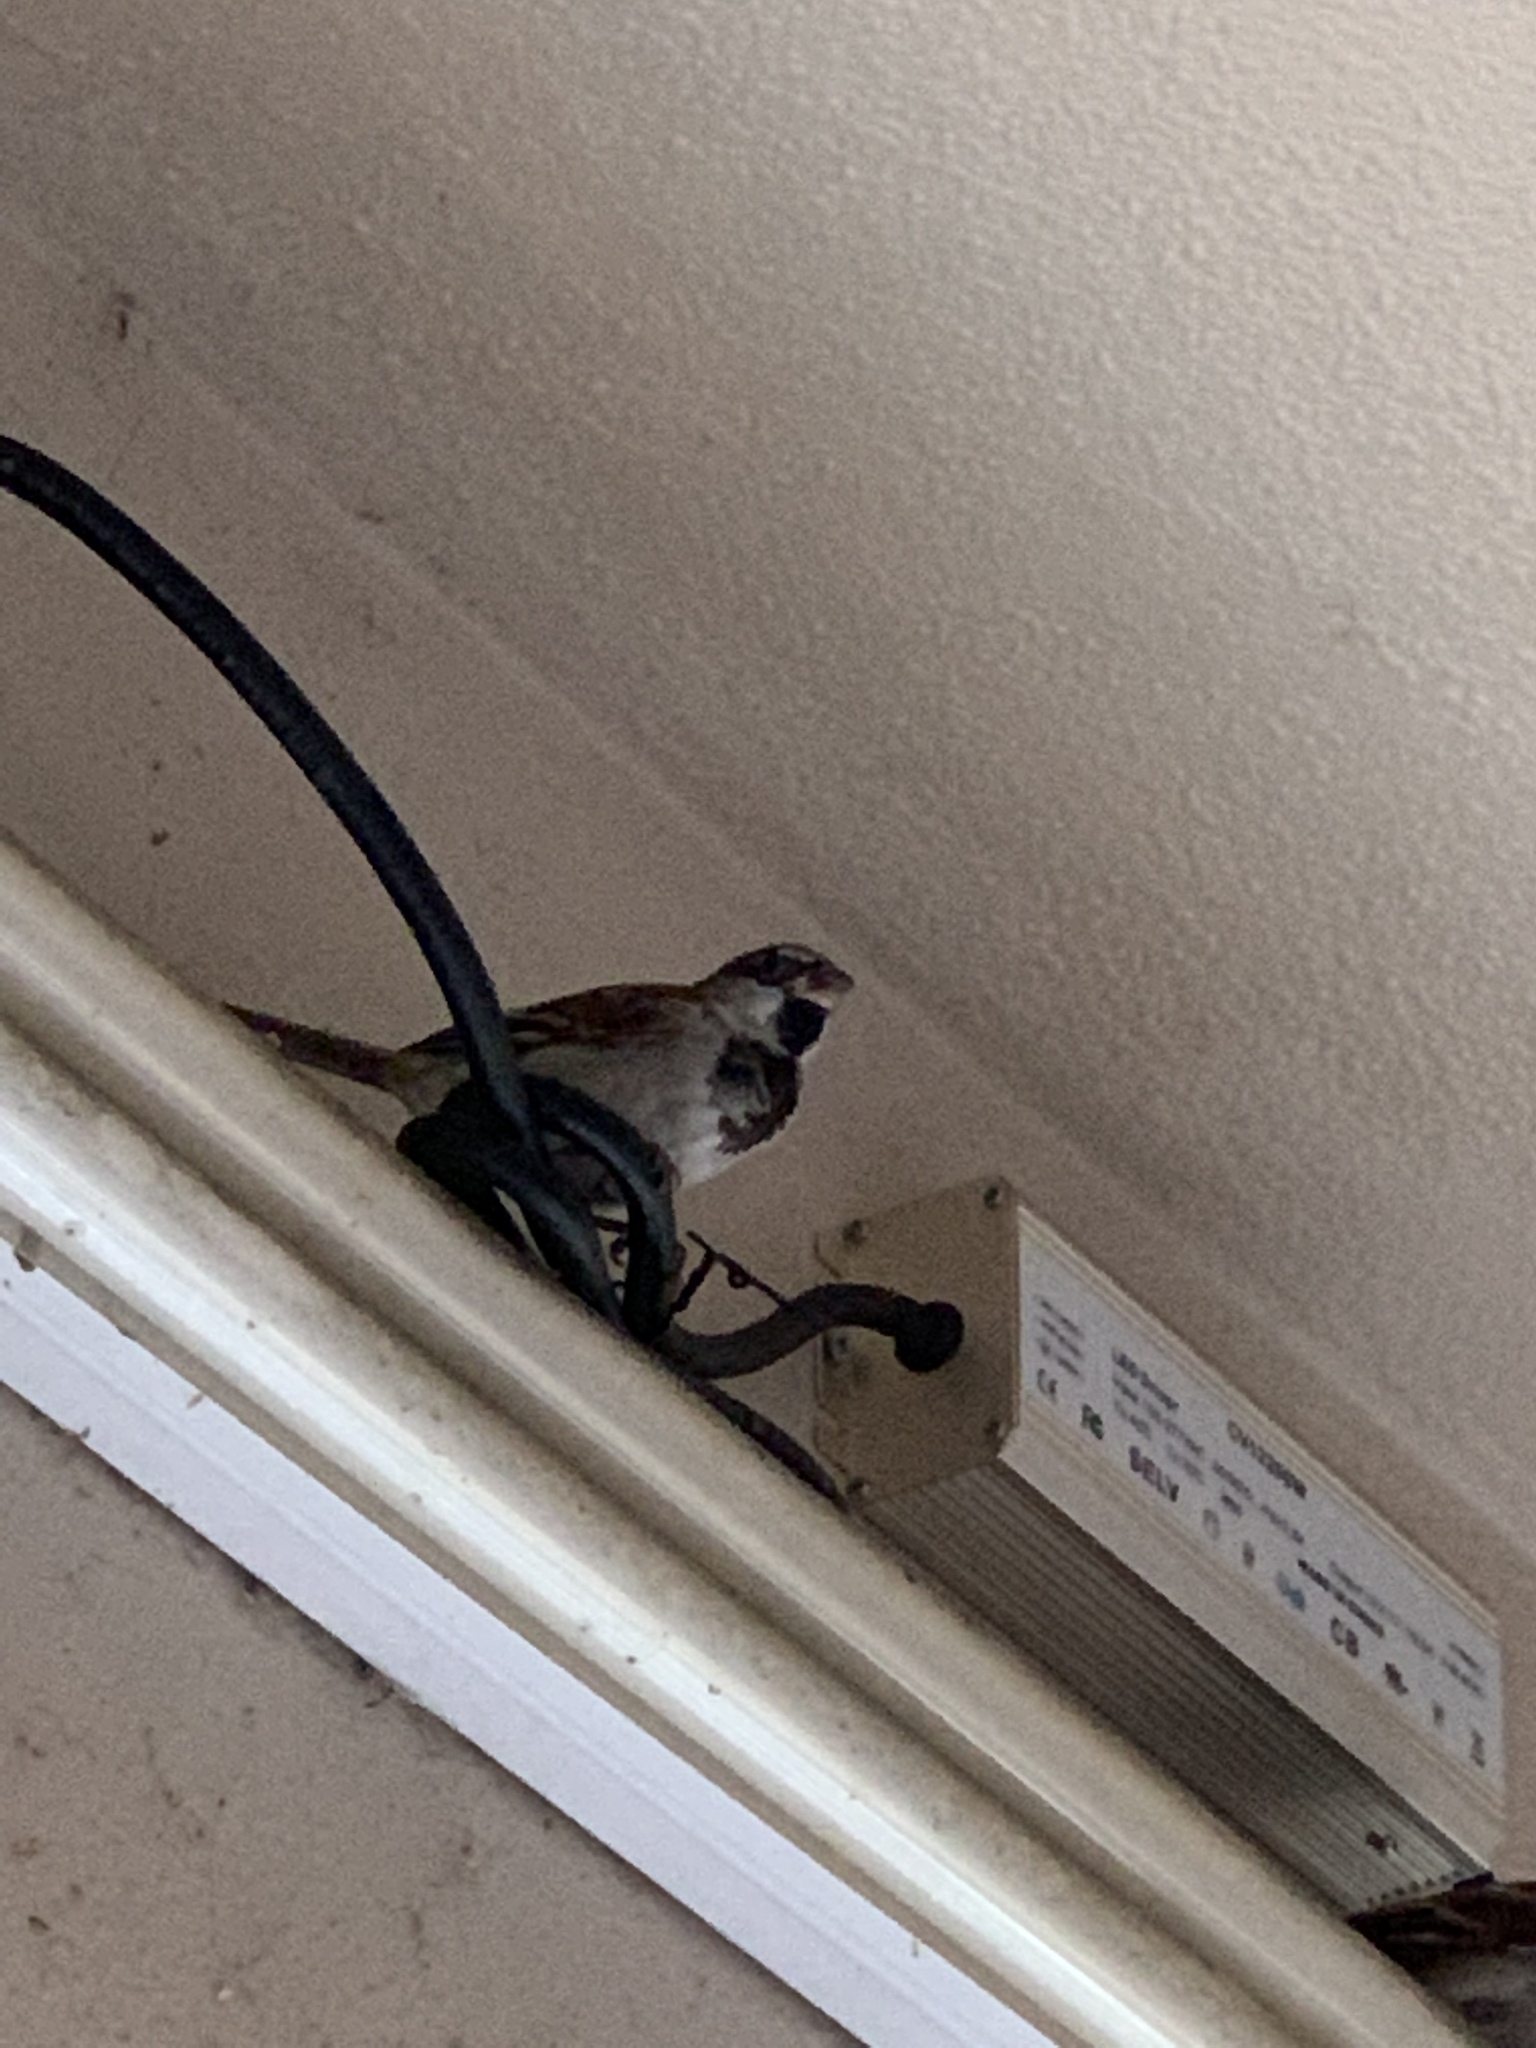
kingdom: Animalia
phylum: Chordata
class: Aves
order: Passeriformes
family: Passeridae
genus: Passer
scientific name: Passer domesticus
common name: House sparrow
